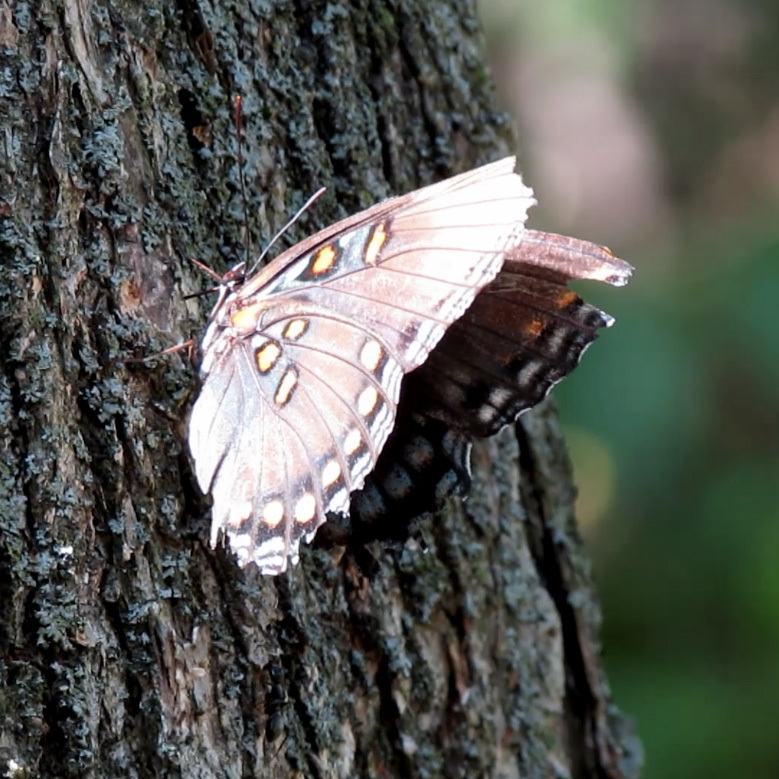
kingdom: Animalia
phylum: Arthropoda
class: Insecta
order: Lepidoptera
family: Nymphalidae
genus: Limenitis
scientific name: Limenitis astyanax
